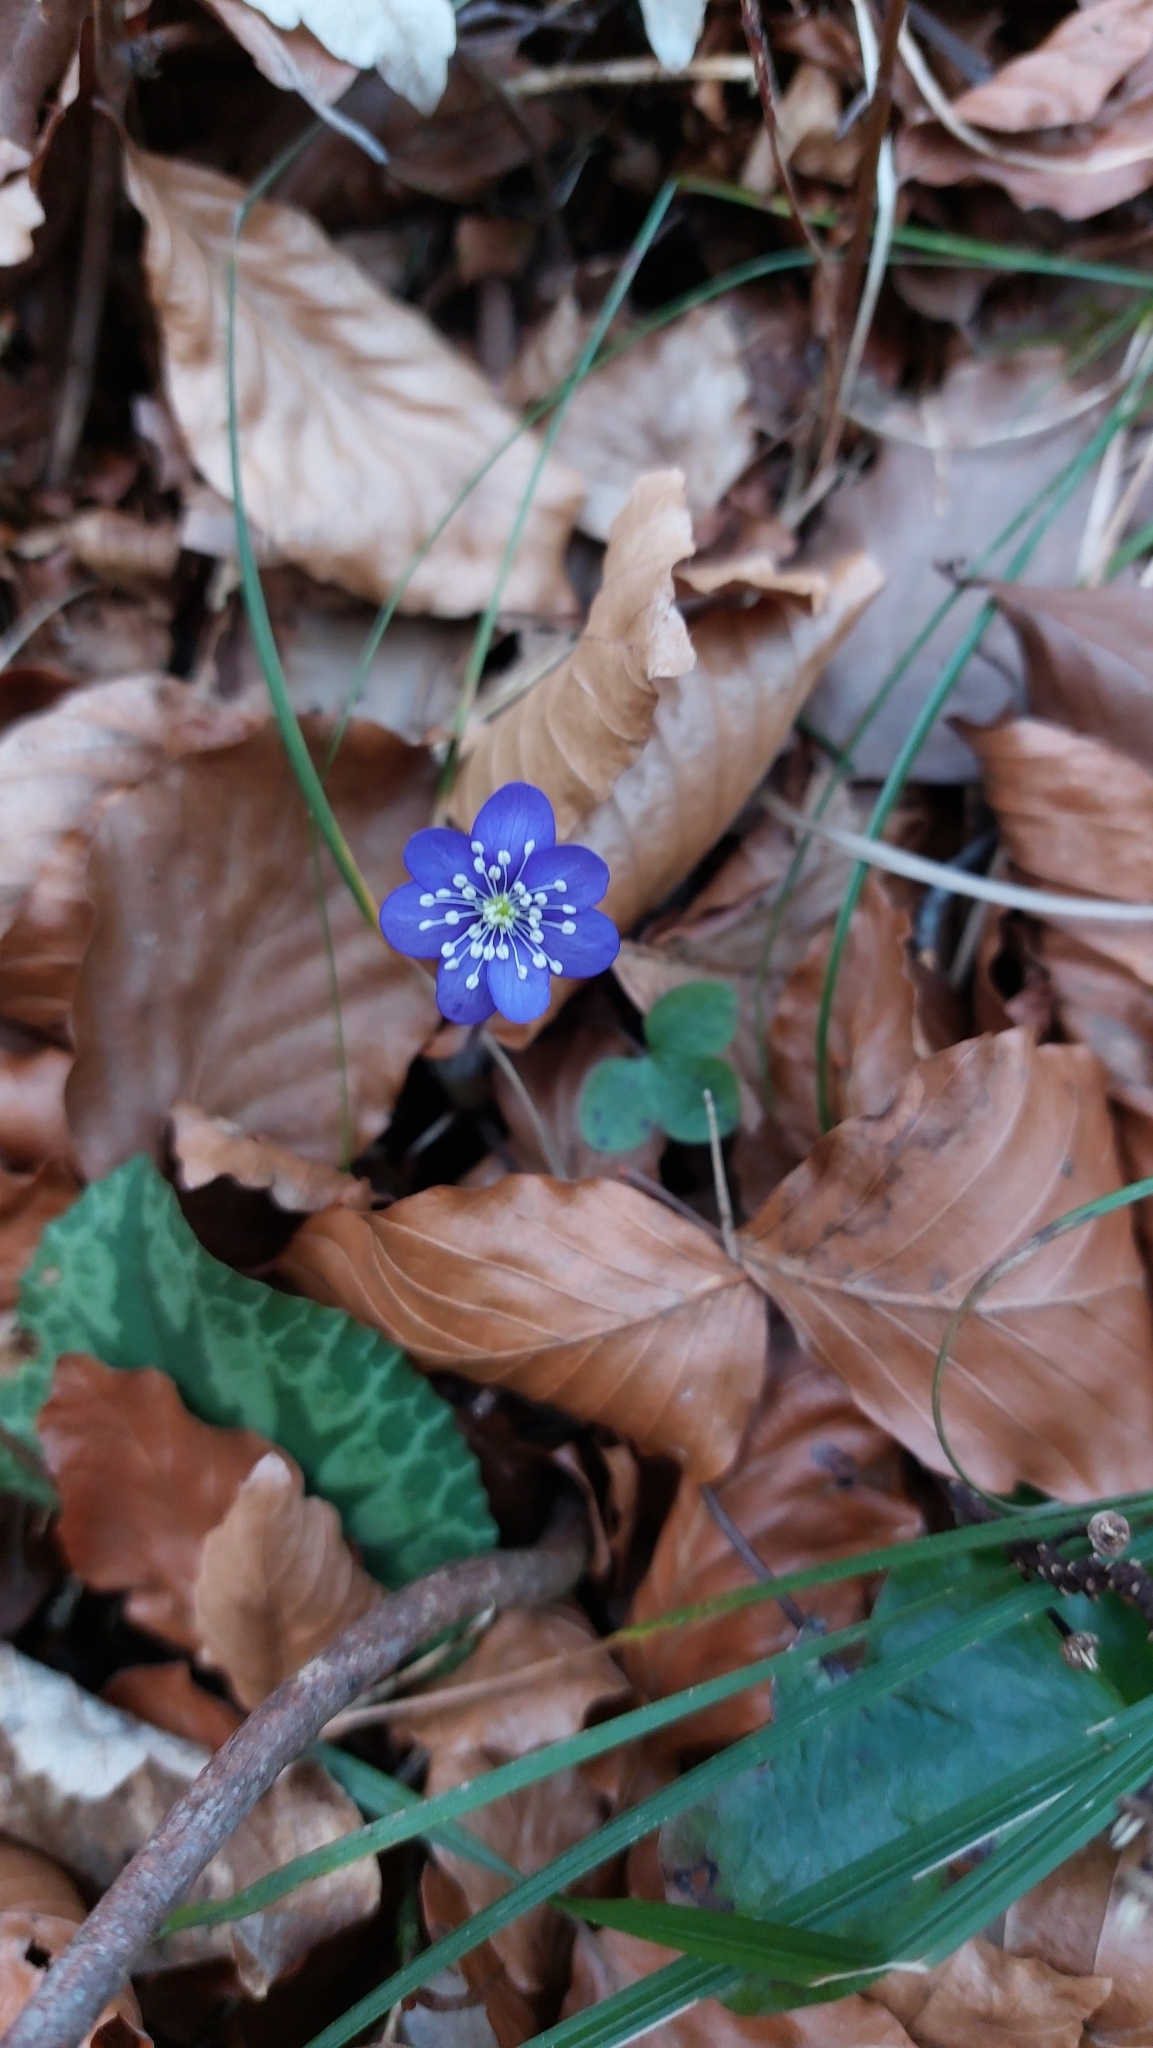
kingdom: Plantae
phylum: Tracheophyta
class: Magnoliopsida
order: Ranunculales
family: Ranunculaceae
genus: Hepatica
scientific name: Hepatica nobilis
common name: Liverleaf
